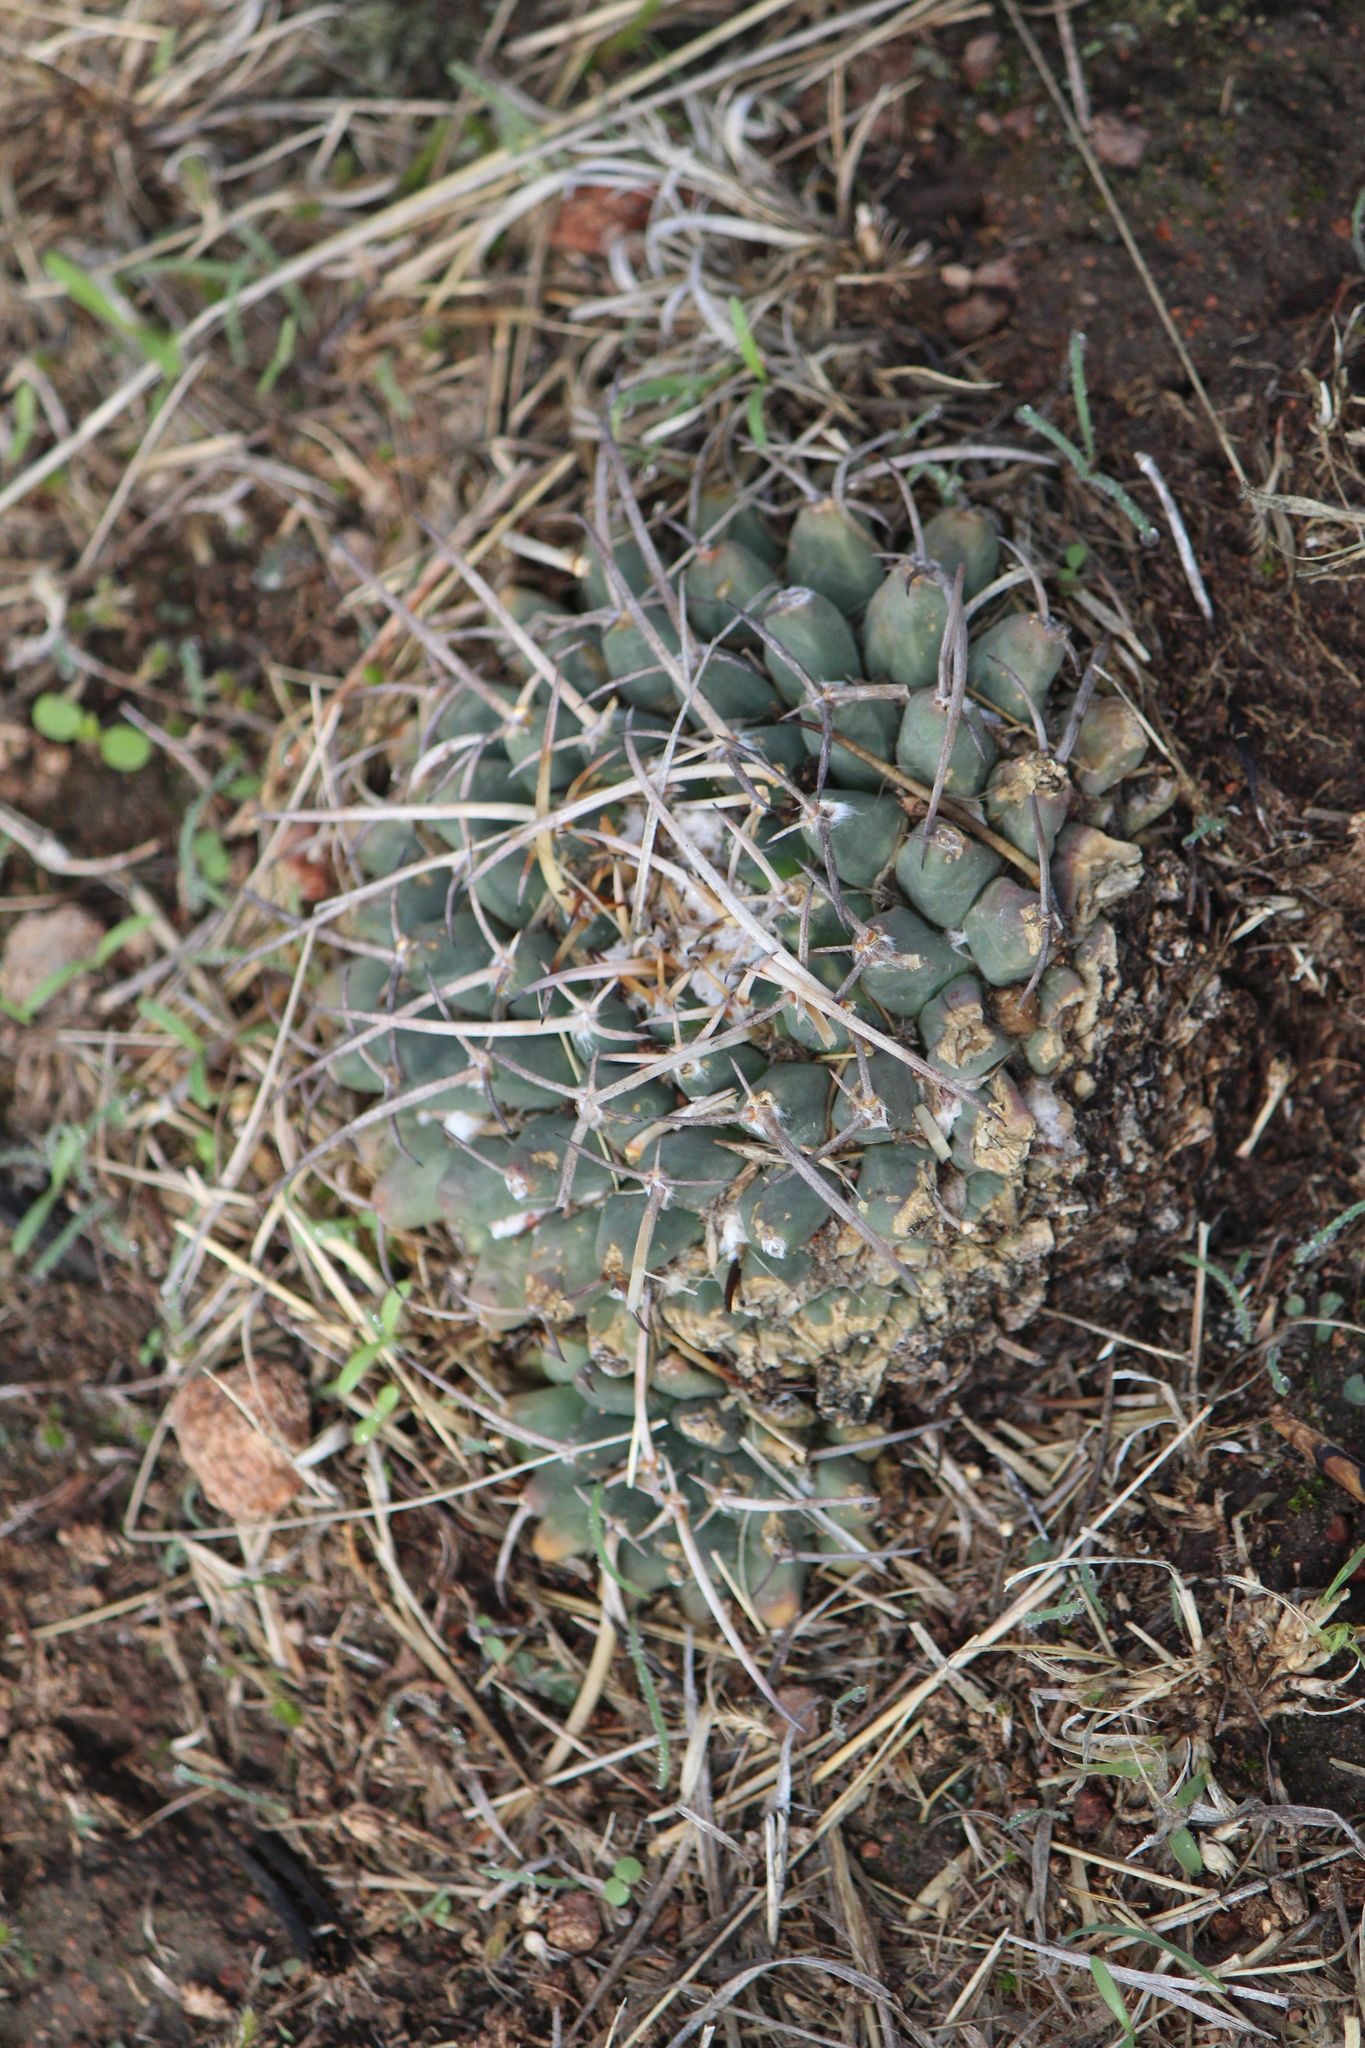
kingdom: Plantae
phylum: Tracheophyta
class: Magnoliopsida
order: Caryophyllales
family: Cactaceae
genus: Mammillaria
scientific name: Mammillaria magnimamma
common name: Mexican pincushion
